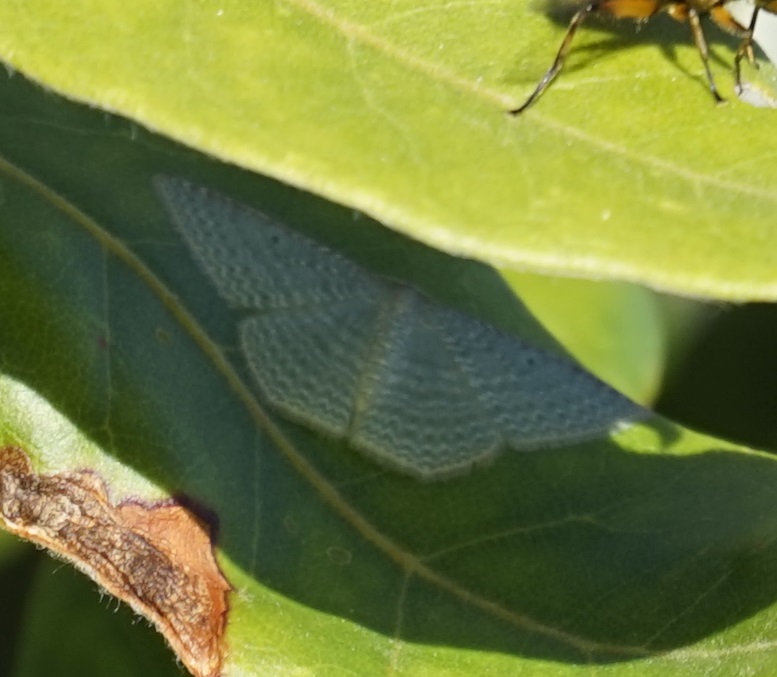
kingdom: Animalia
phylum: Arthropoda
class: Insecta
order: Lepidoptera
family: Geometridae
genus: Poecilasthena
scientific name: Poecilasthena thalassias
